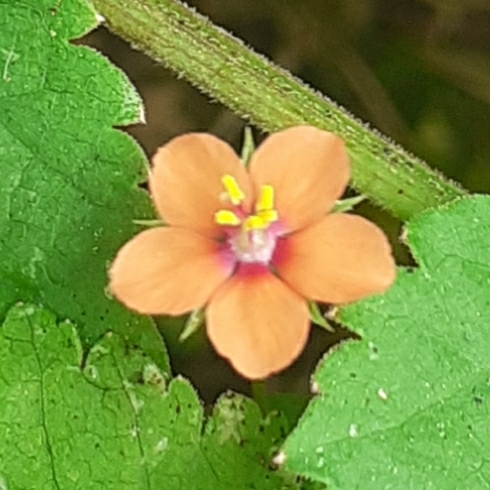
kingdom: Plantae
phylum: Tracheophyta
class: Magnoliopsida
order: Ericales
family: Primulaceae
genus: Lysimachia
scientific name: Lysimachia arvensis
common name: Scarlet pimpernel
